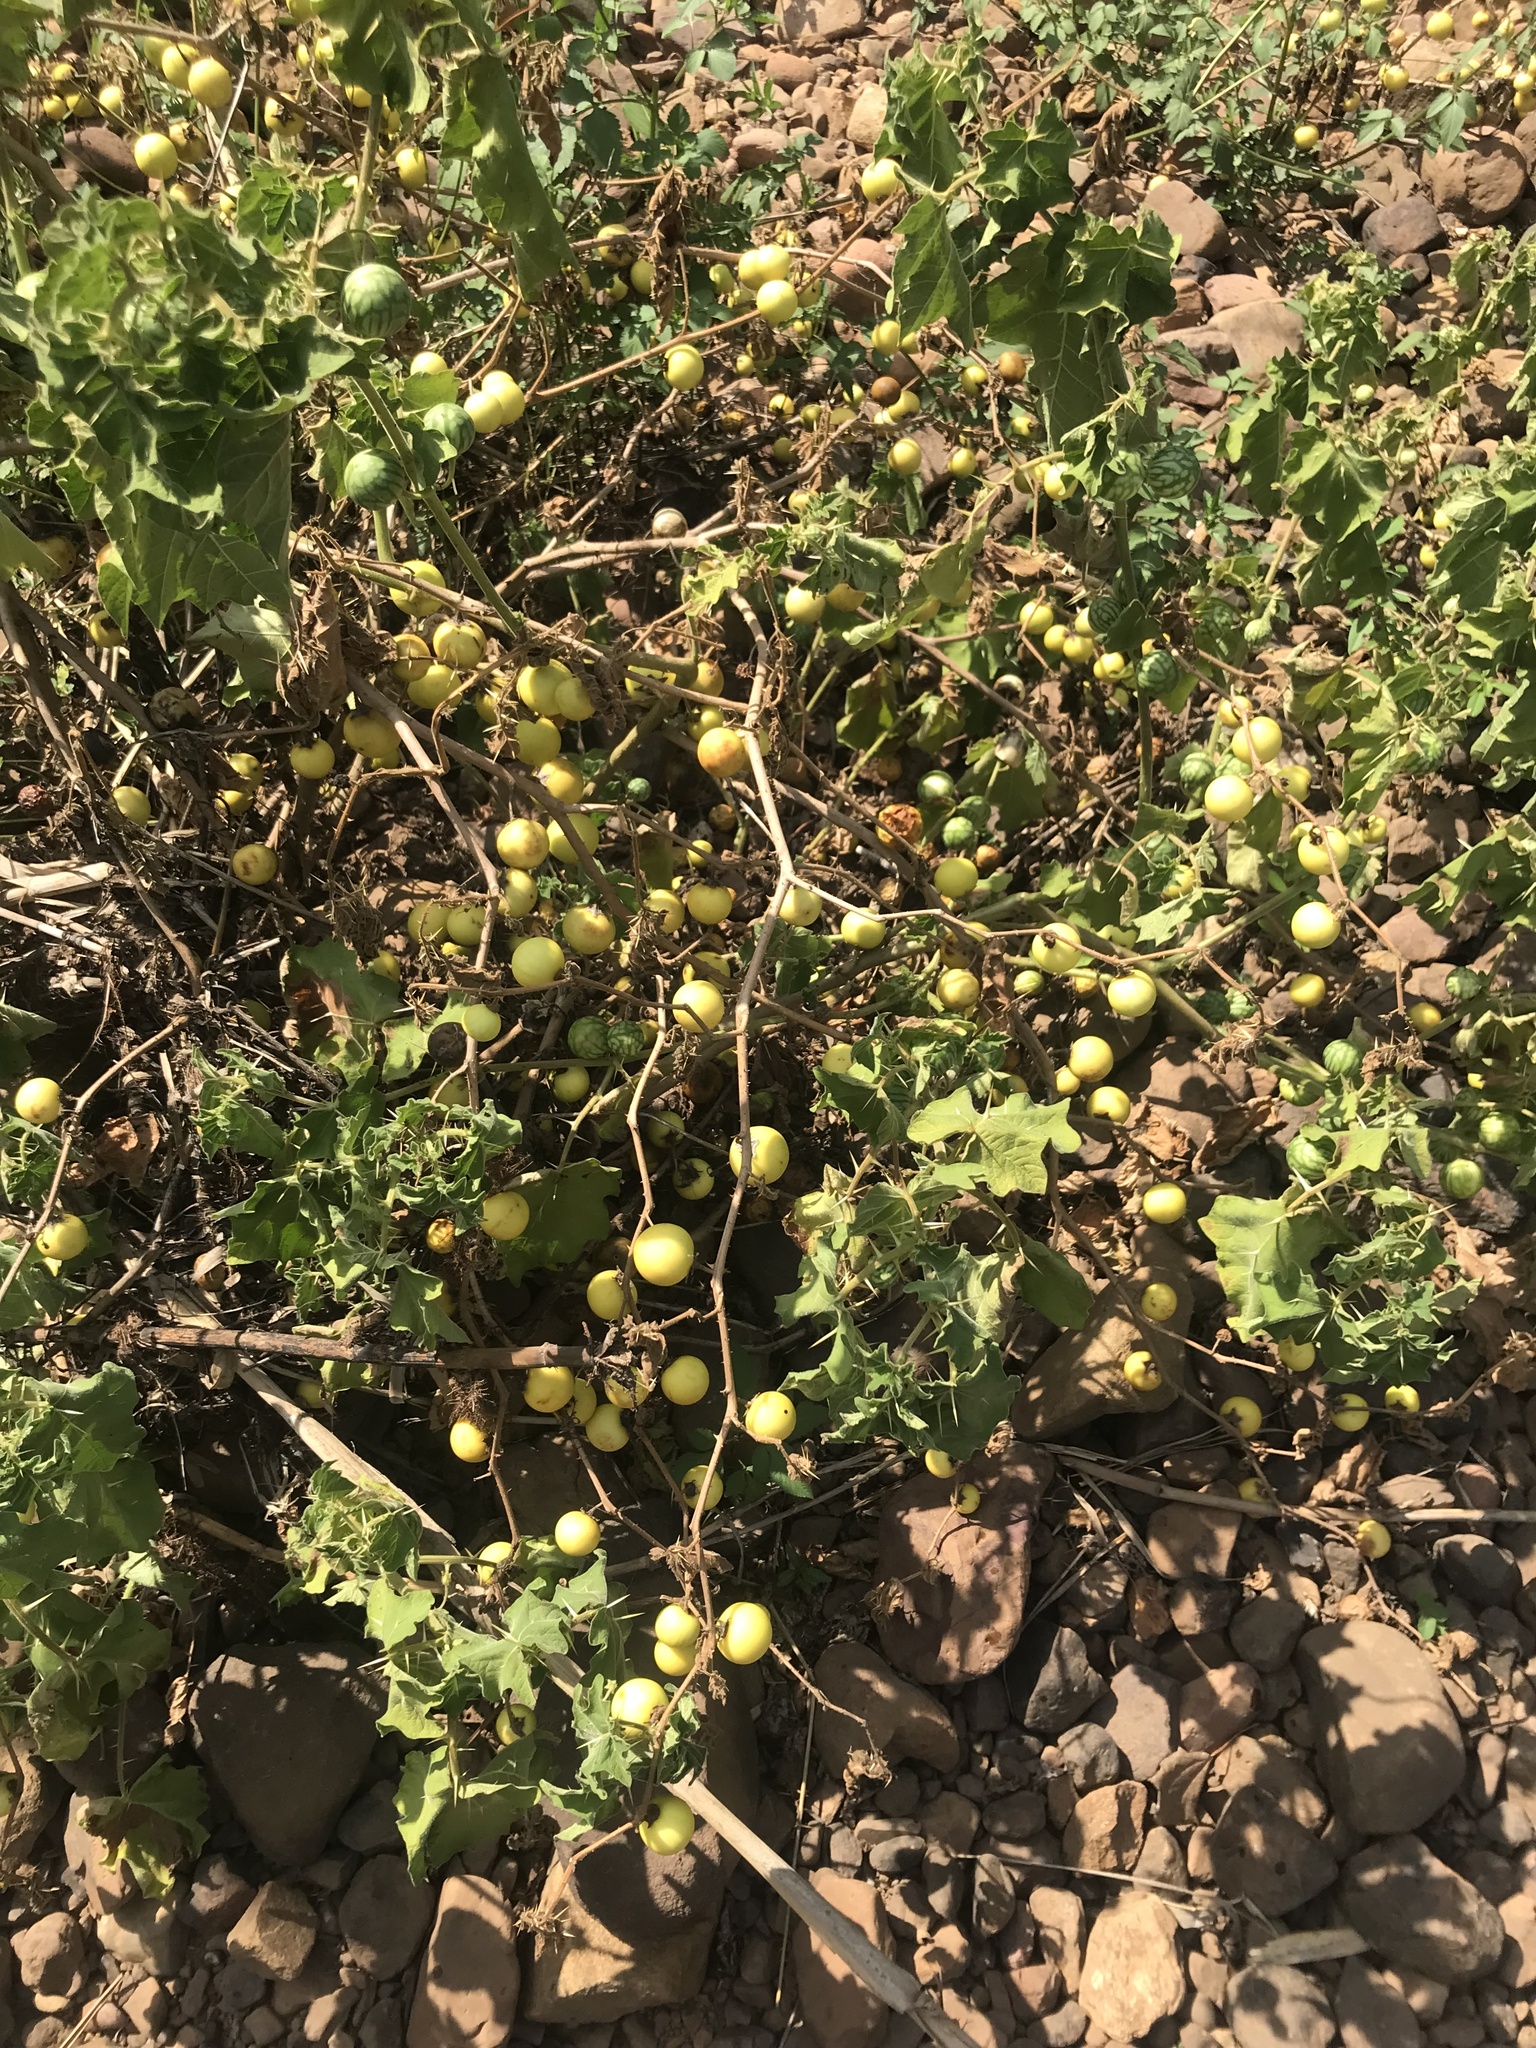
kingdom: Plantae
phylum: Tracheophyta
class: Magnoliopsida
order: Solanales
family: Solanaceae
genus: Solanum
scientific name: Solanum viarum
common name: Tropical soda apple
